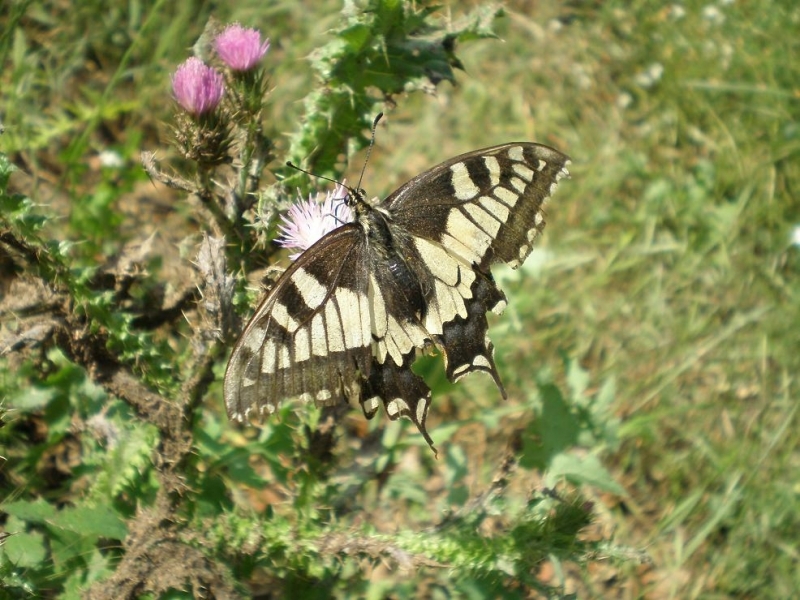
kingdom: Animalia
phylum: Arthropoda
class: Insecta
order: Lepidoptera
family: Papilionidae
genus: Papilio
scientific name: Papilio machaon
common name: Swallowtail
